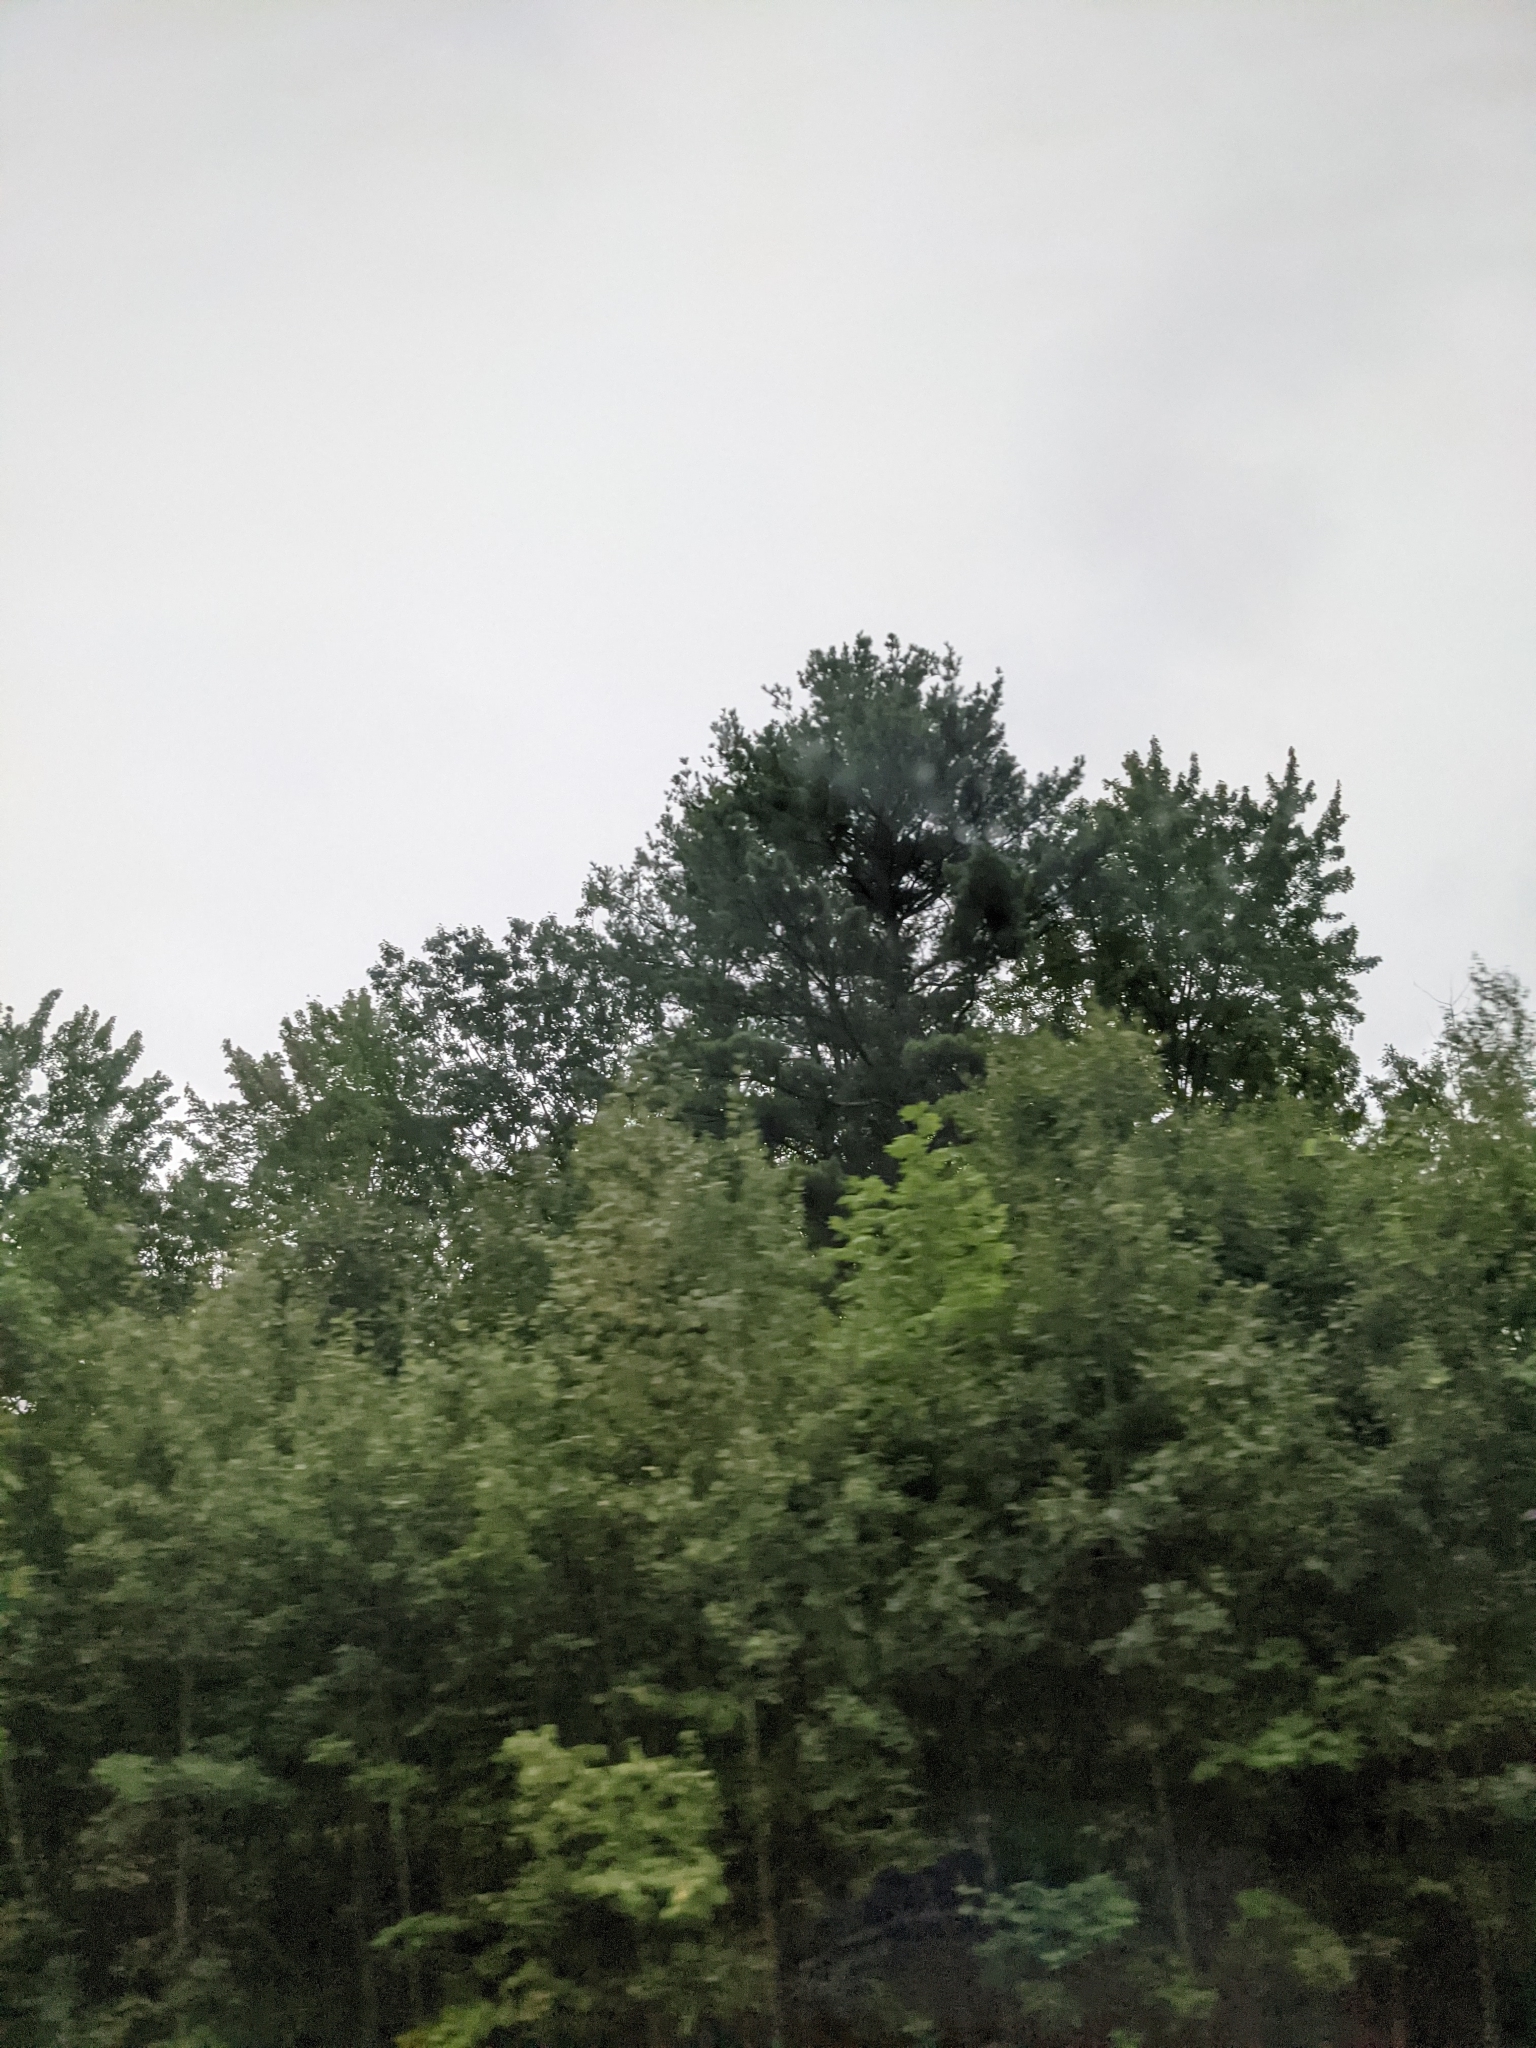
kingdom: Plantae
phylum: Tracheophyta
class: Pinopsida
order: Pinales
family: Pinaceae
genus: Pinus
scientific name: Pinus strobus
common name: Weymouth pine
